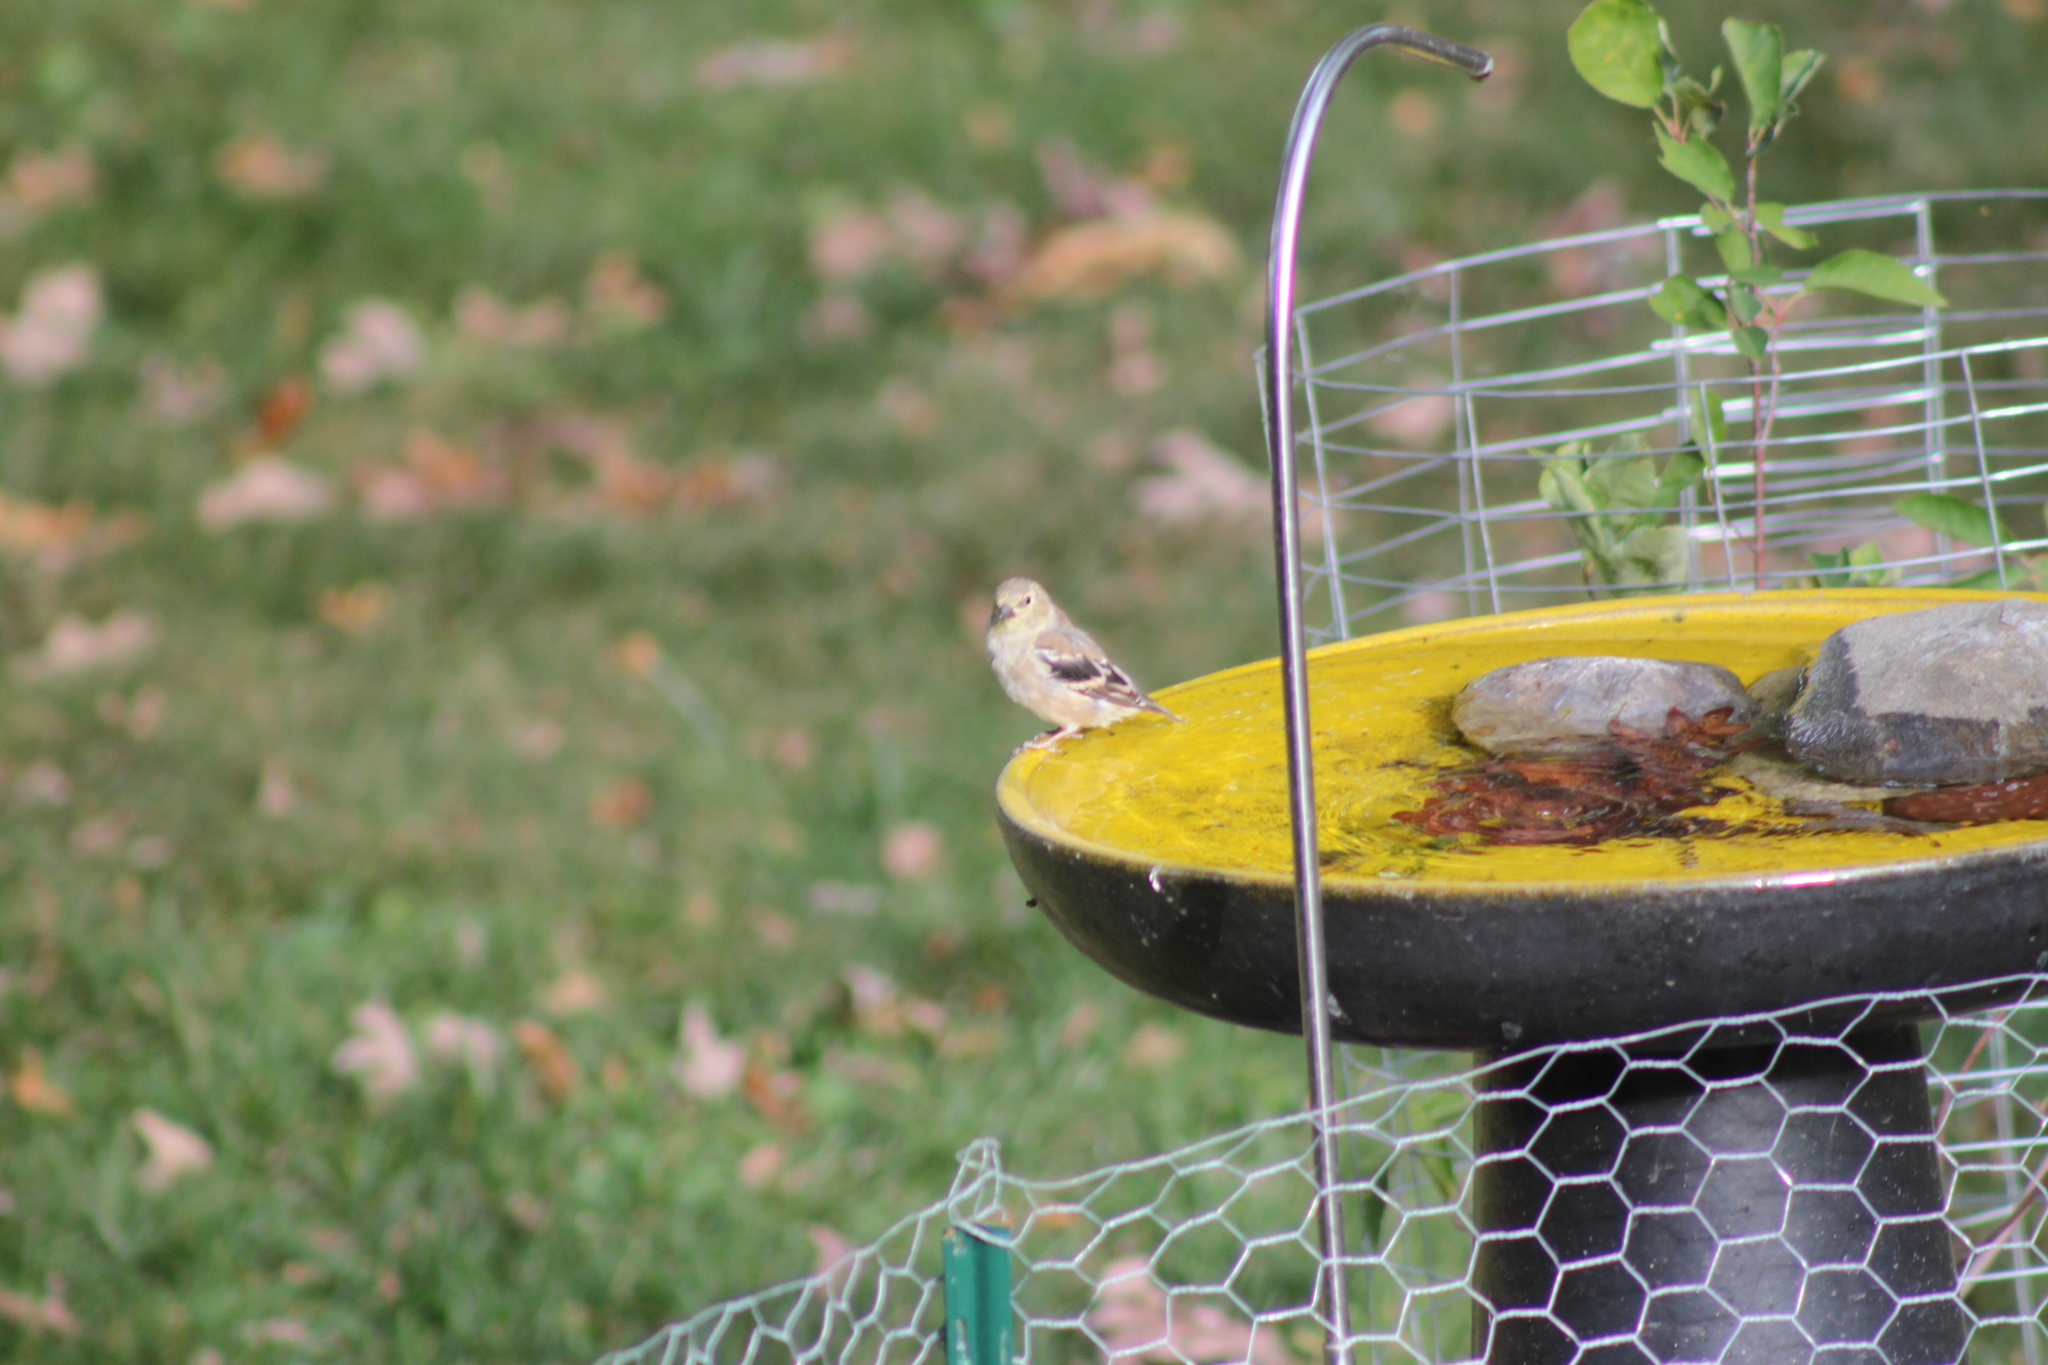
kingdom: Animalia
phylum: Chordata
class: Aves
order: Passeriformes
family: Fringillidae
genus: Spinus
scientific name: Spinus tristis
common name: American goldfinch
